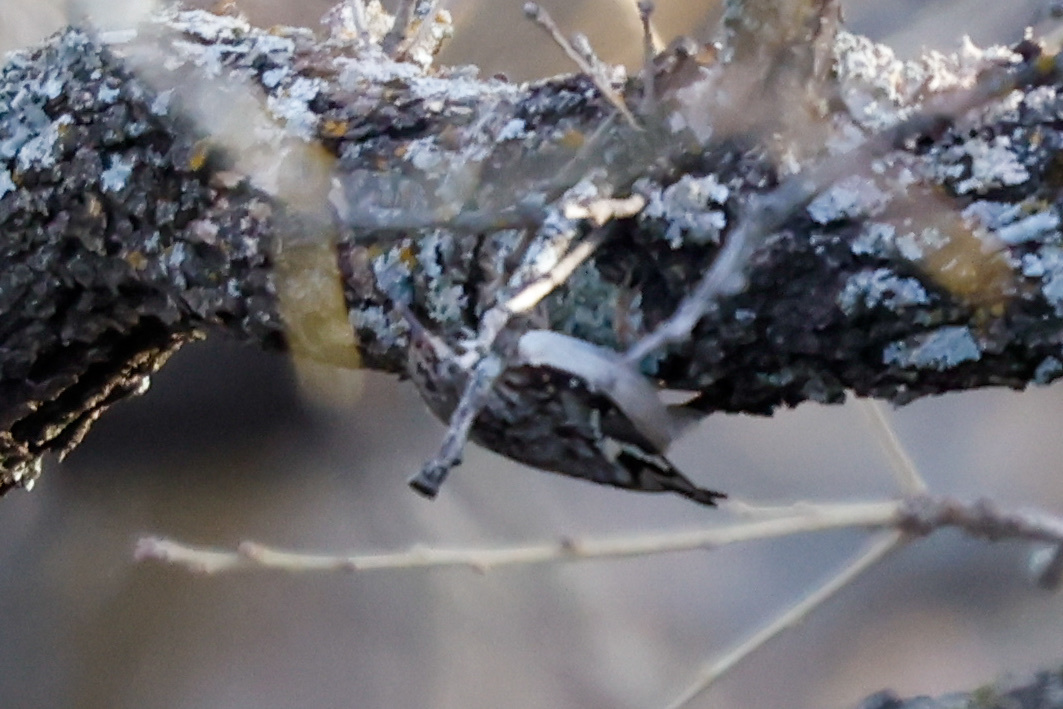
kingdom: Animalia
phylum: Chordata
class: Aves
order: Passeriformes
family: Certhiidae
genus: Certhia
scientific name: Certhia americana
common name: Brown creeper
